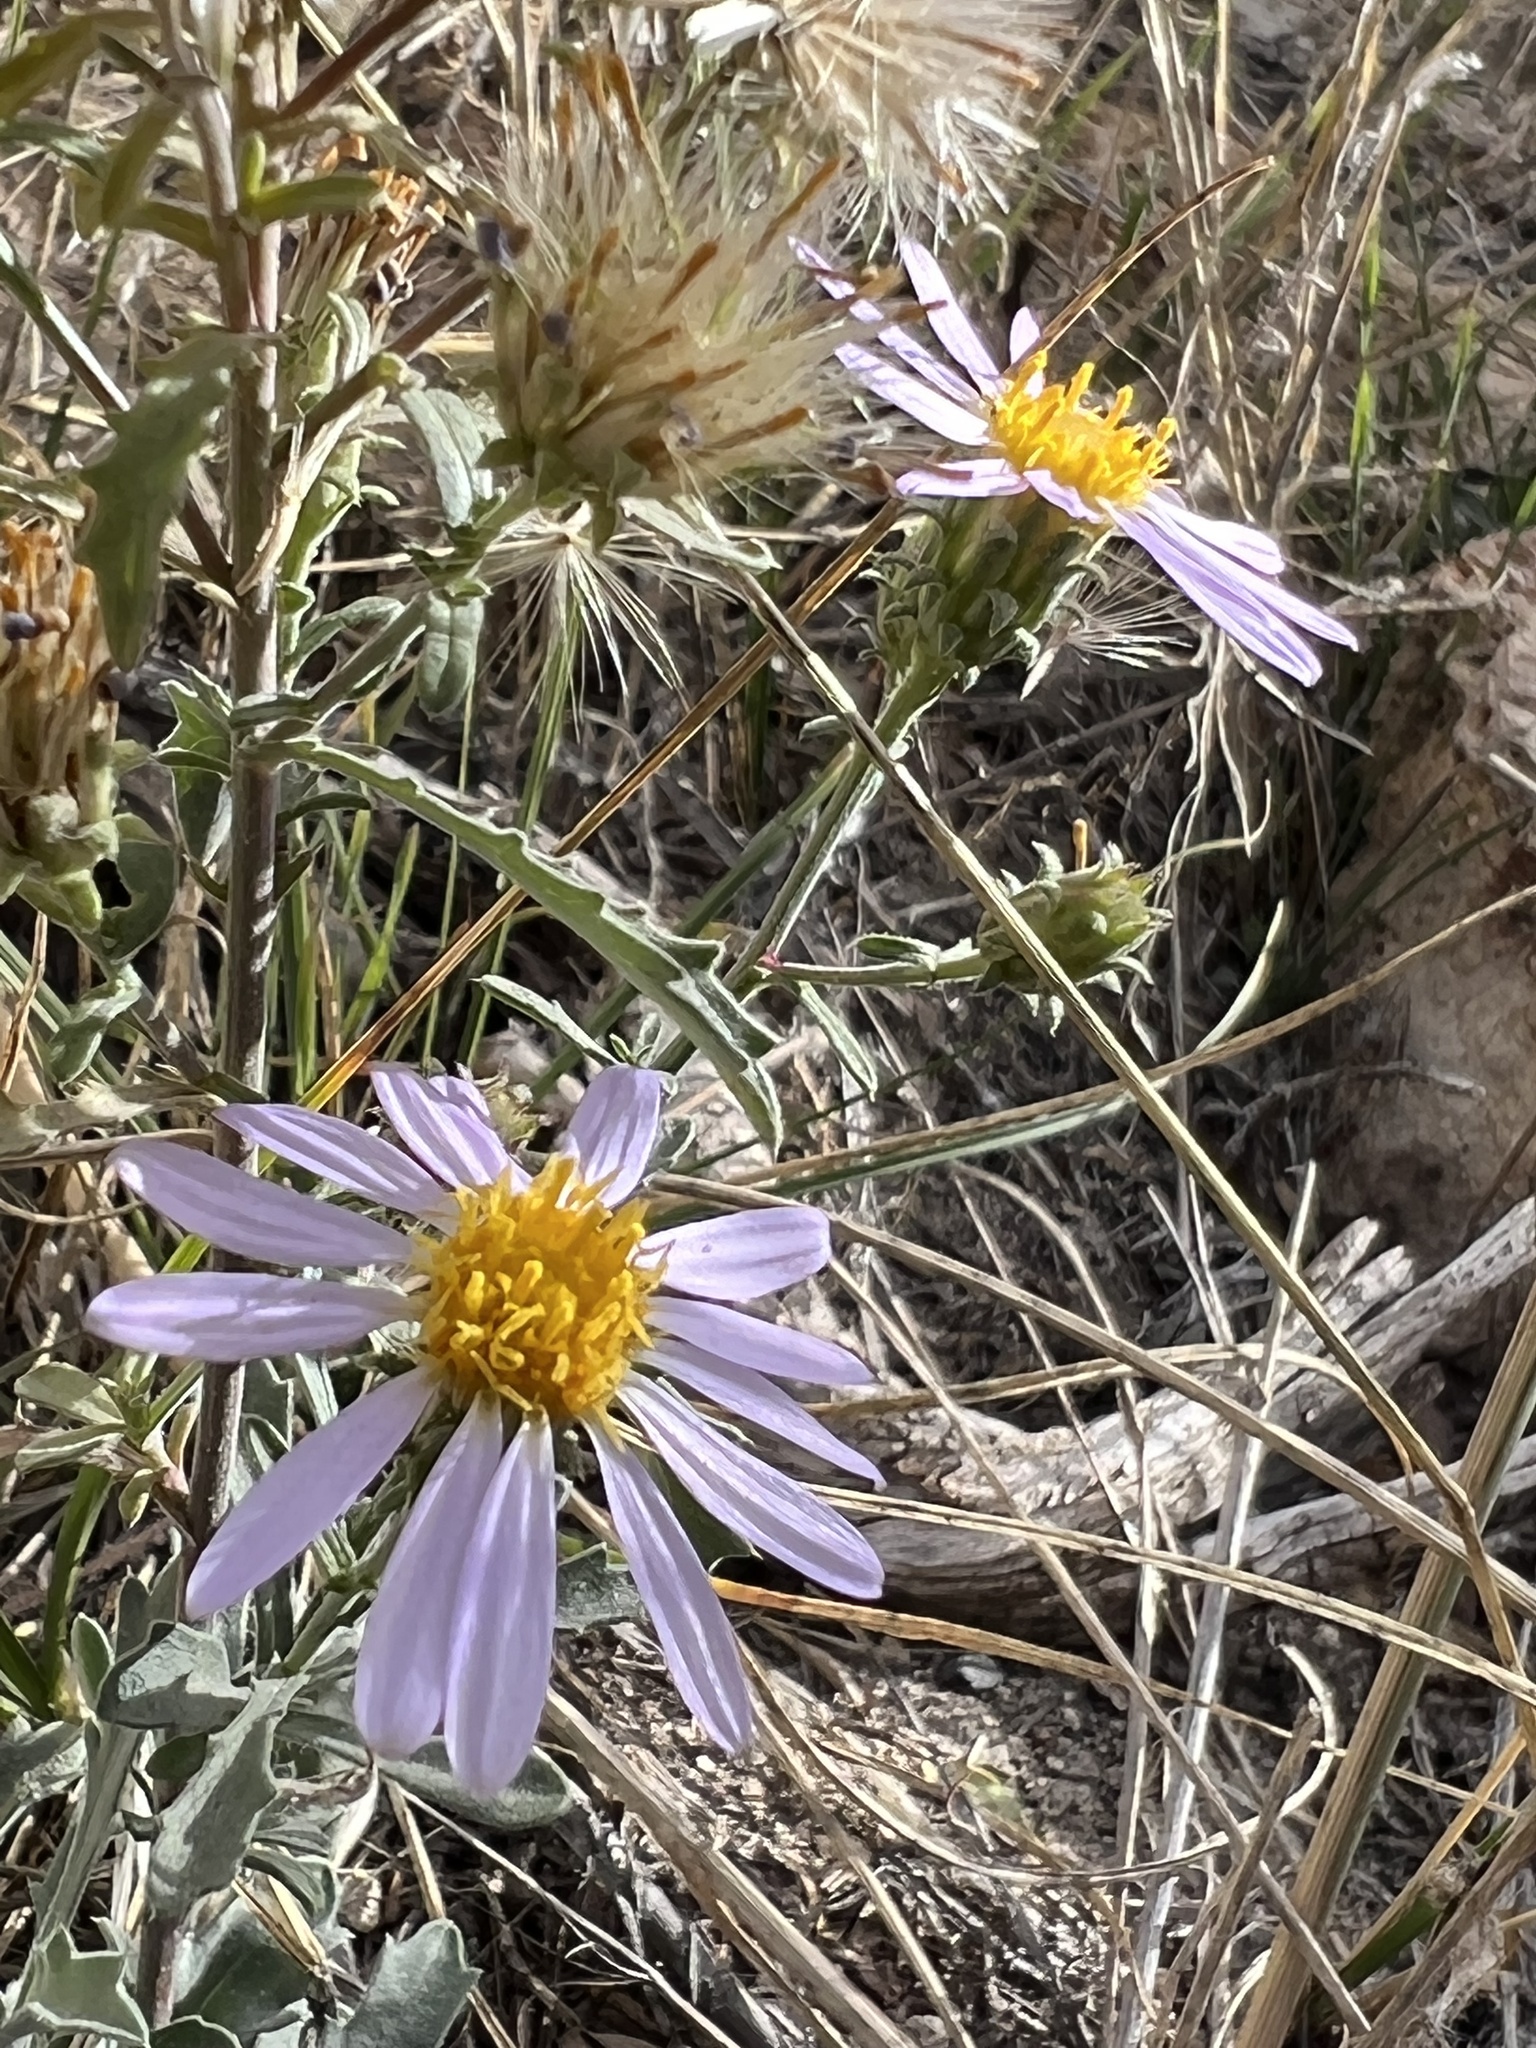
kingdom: Plantae
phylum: Tracheophyta
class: Magnoliopsida
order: Asterales
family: Asteraceae
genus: Dieteria
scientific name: Dieteria canescens
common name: Hoary-aster
